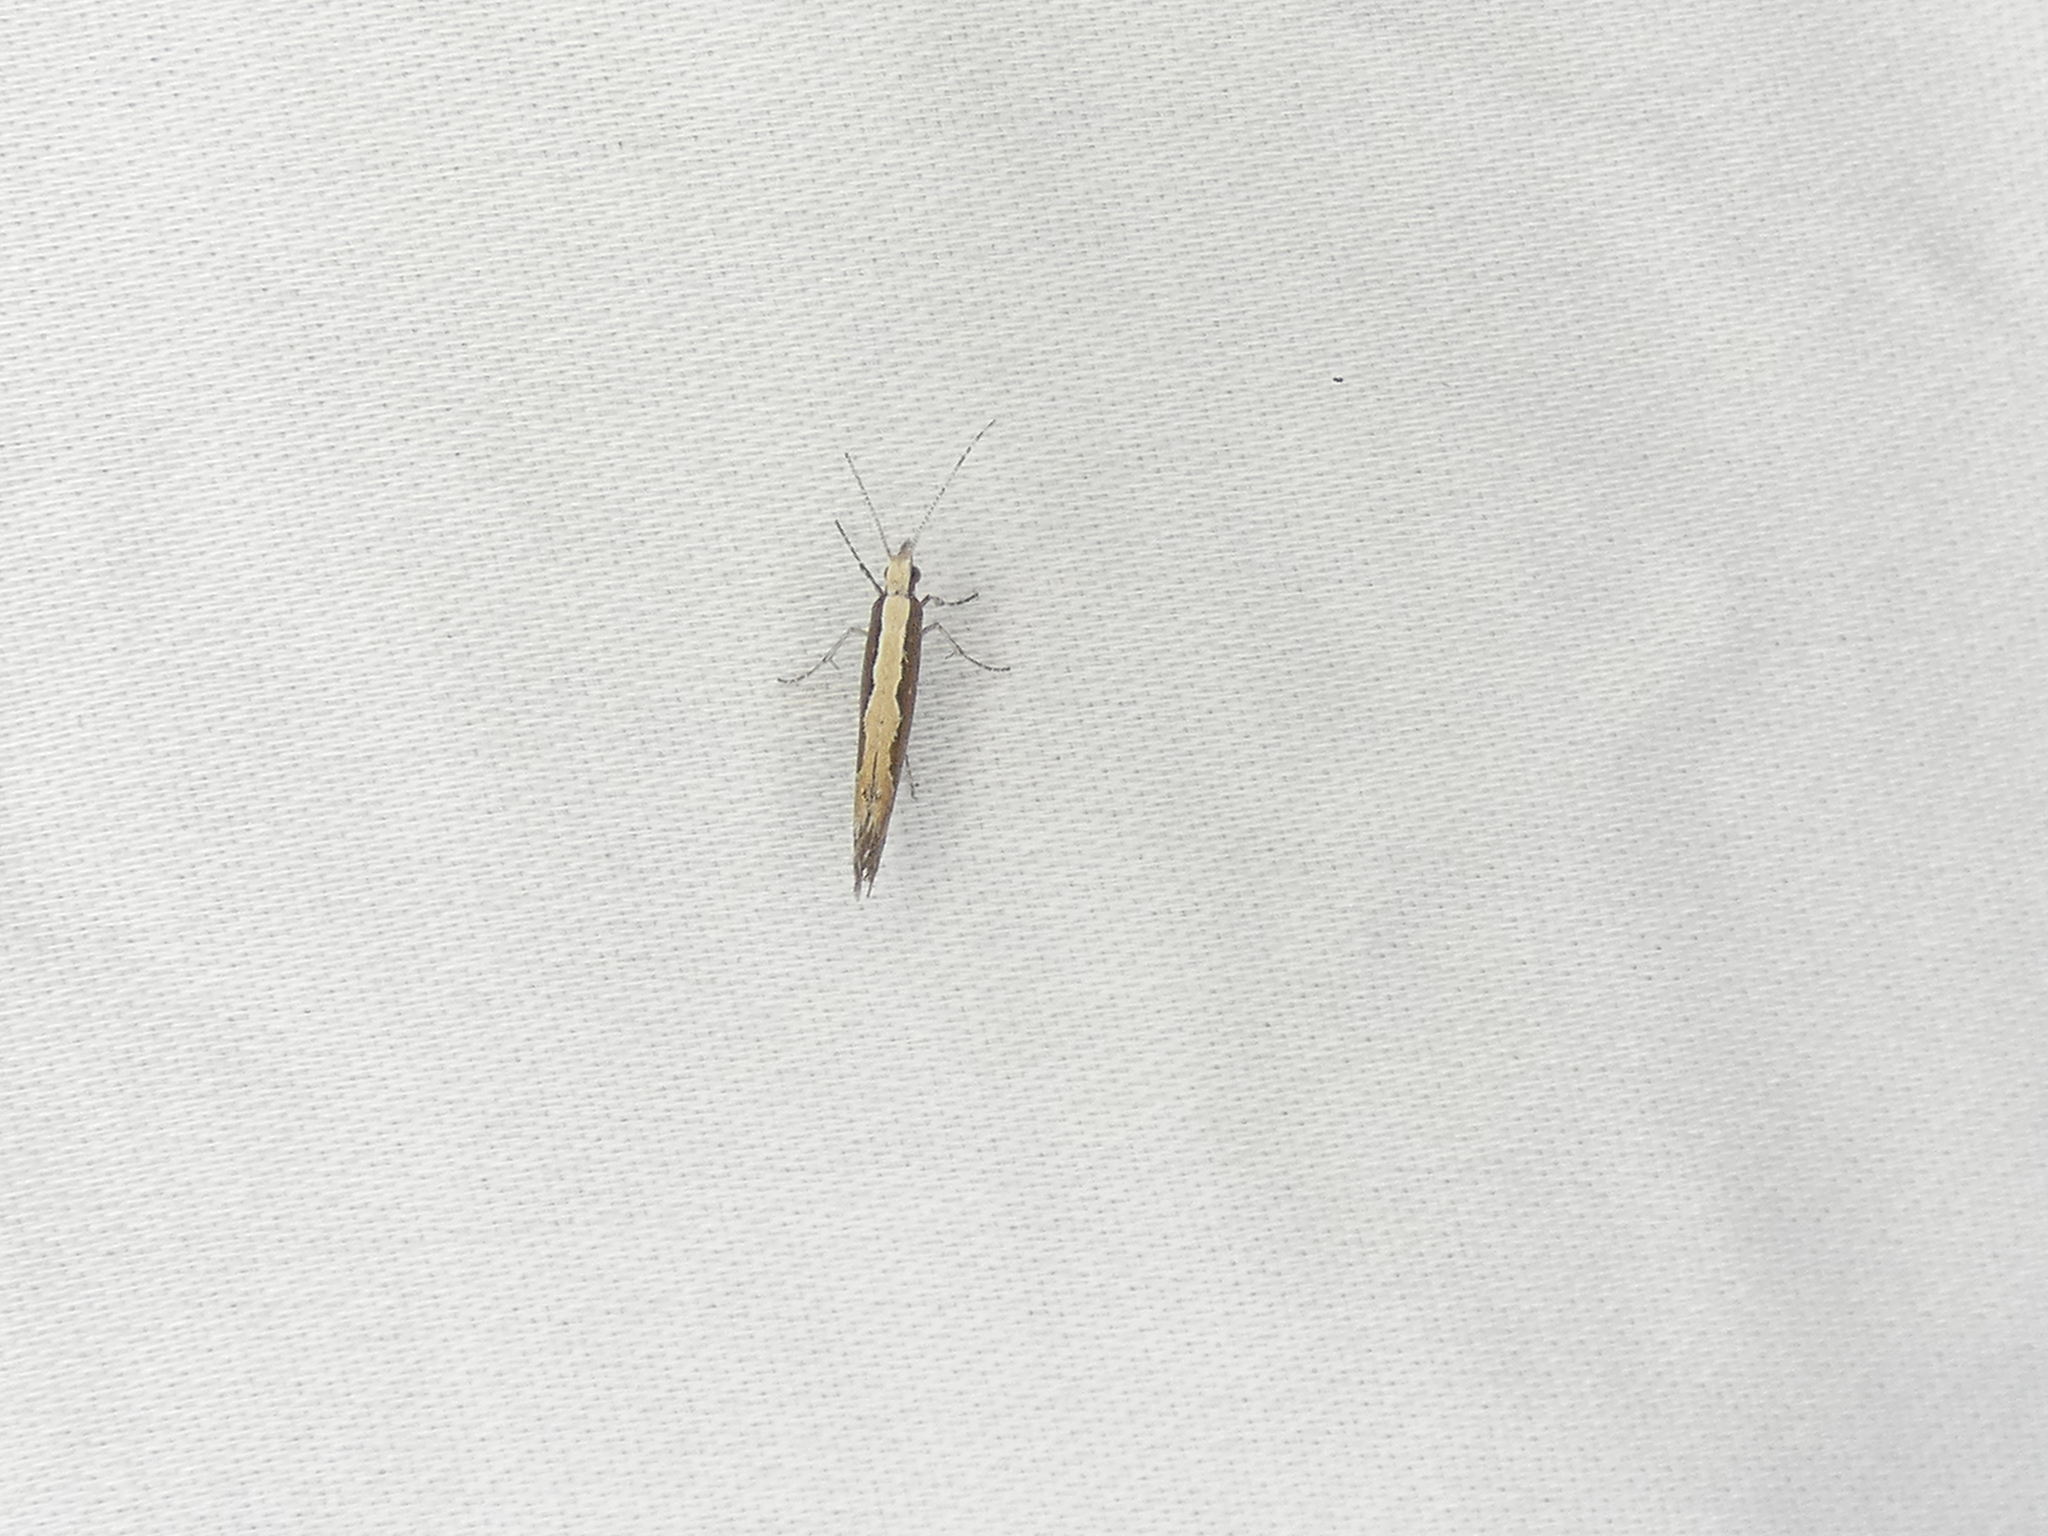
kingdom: Animalia
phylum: Arthropoda
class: Insecta
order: Lepidoptera
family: Plutellidae
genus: Plutella
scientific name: Plutella xylostella
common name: Diamond-back moth
